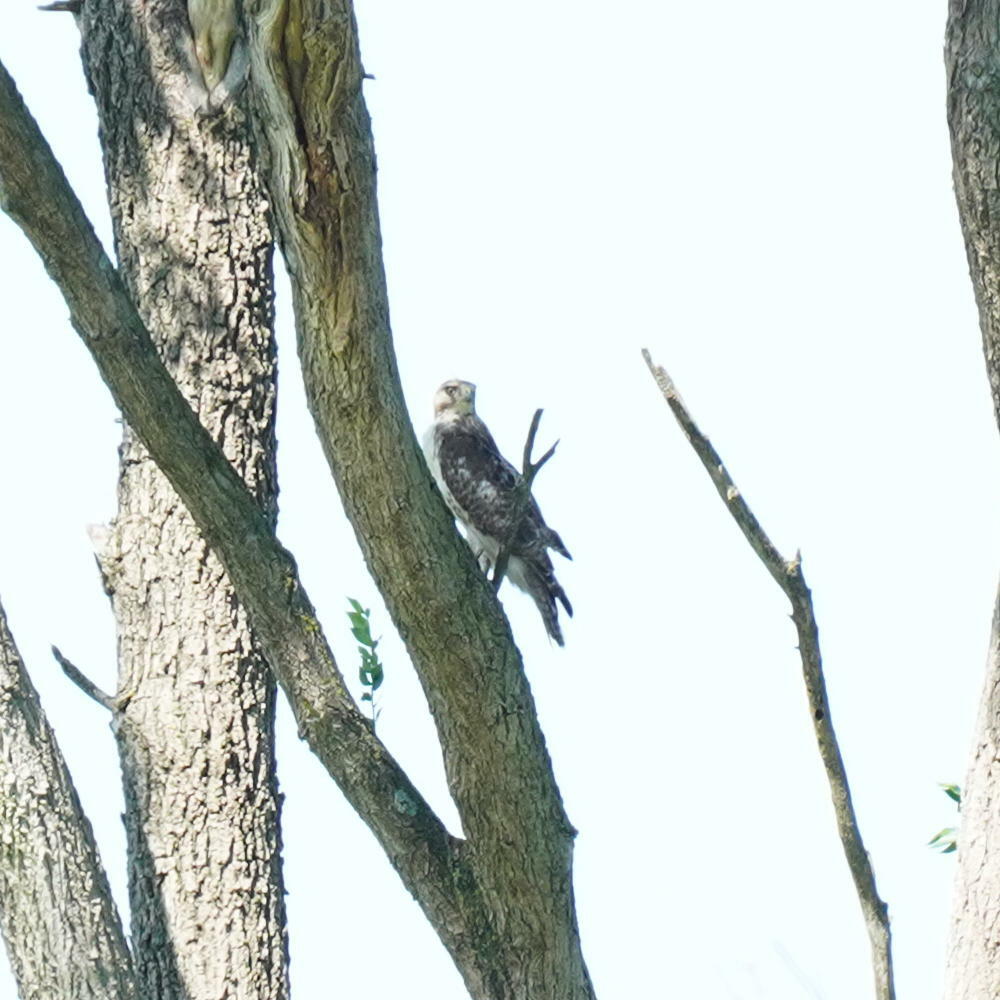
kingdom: Animalia
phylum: Chordata
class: Aves
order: Accipitriformes
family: Accipitridae
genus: Buteo
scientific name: Buteo jamaicensis
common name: Red-tailed hawk
